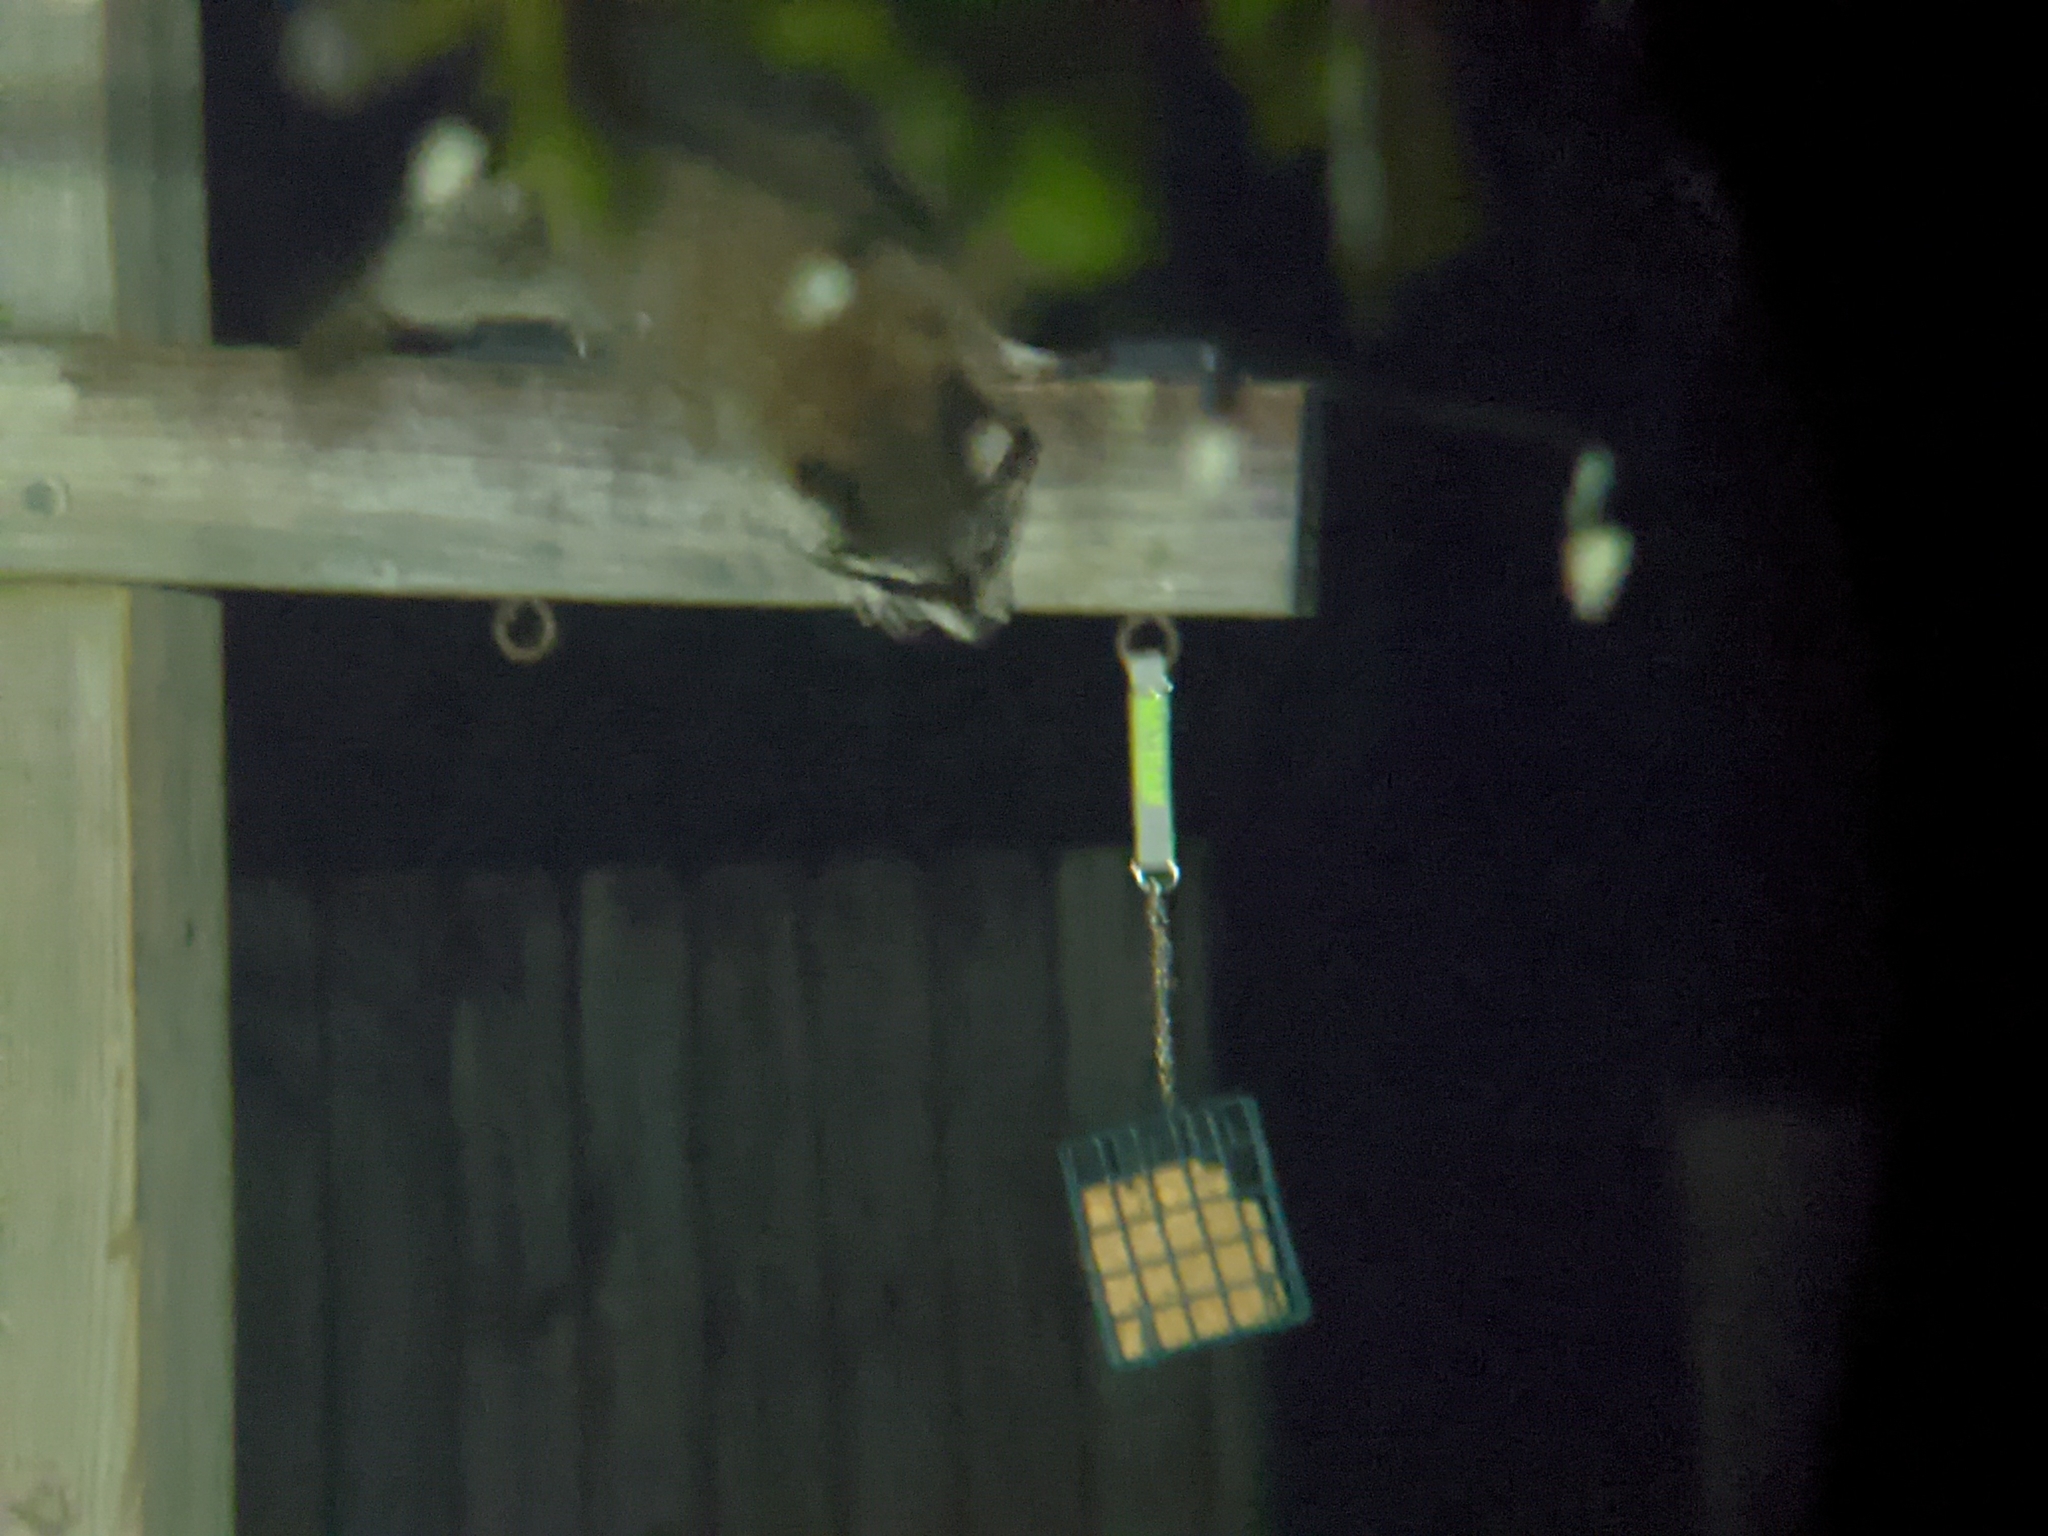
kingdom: Animalia
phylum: Chordata
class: Mammalia
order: Carnivora
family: Procyonidae
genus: Procyon
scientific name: Procyon lotor
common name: Raccoon
